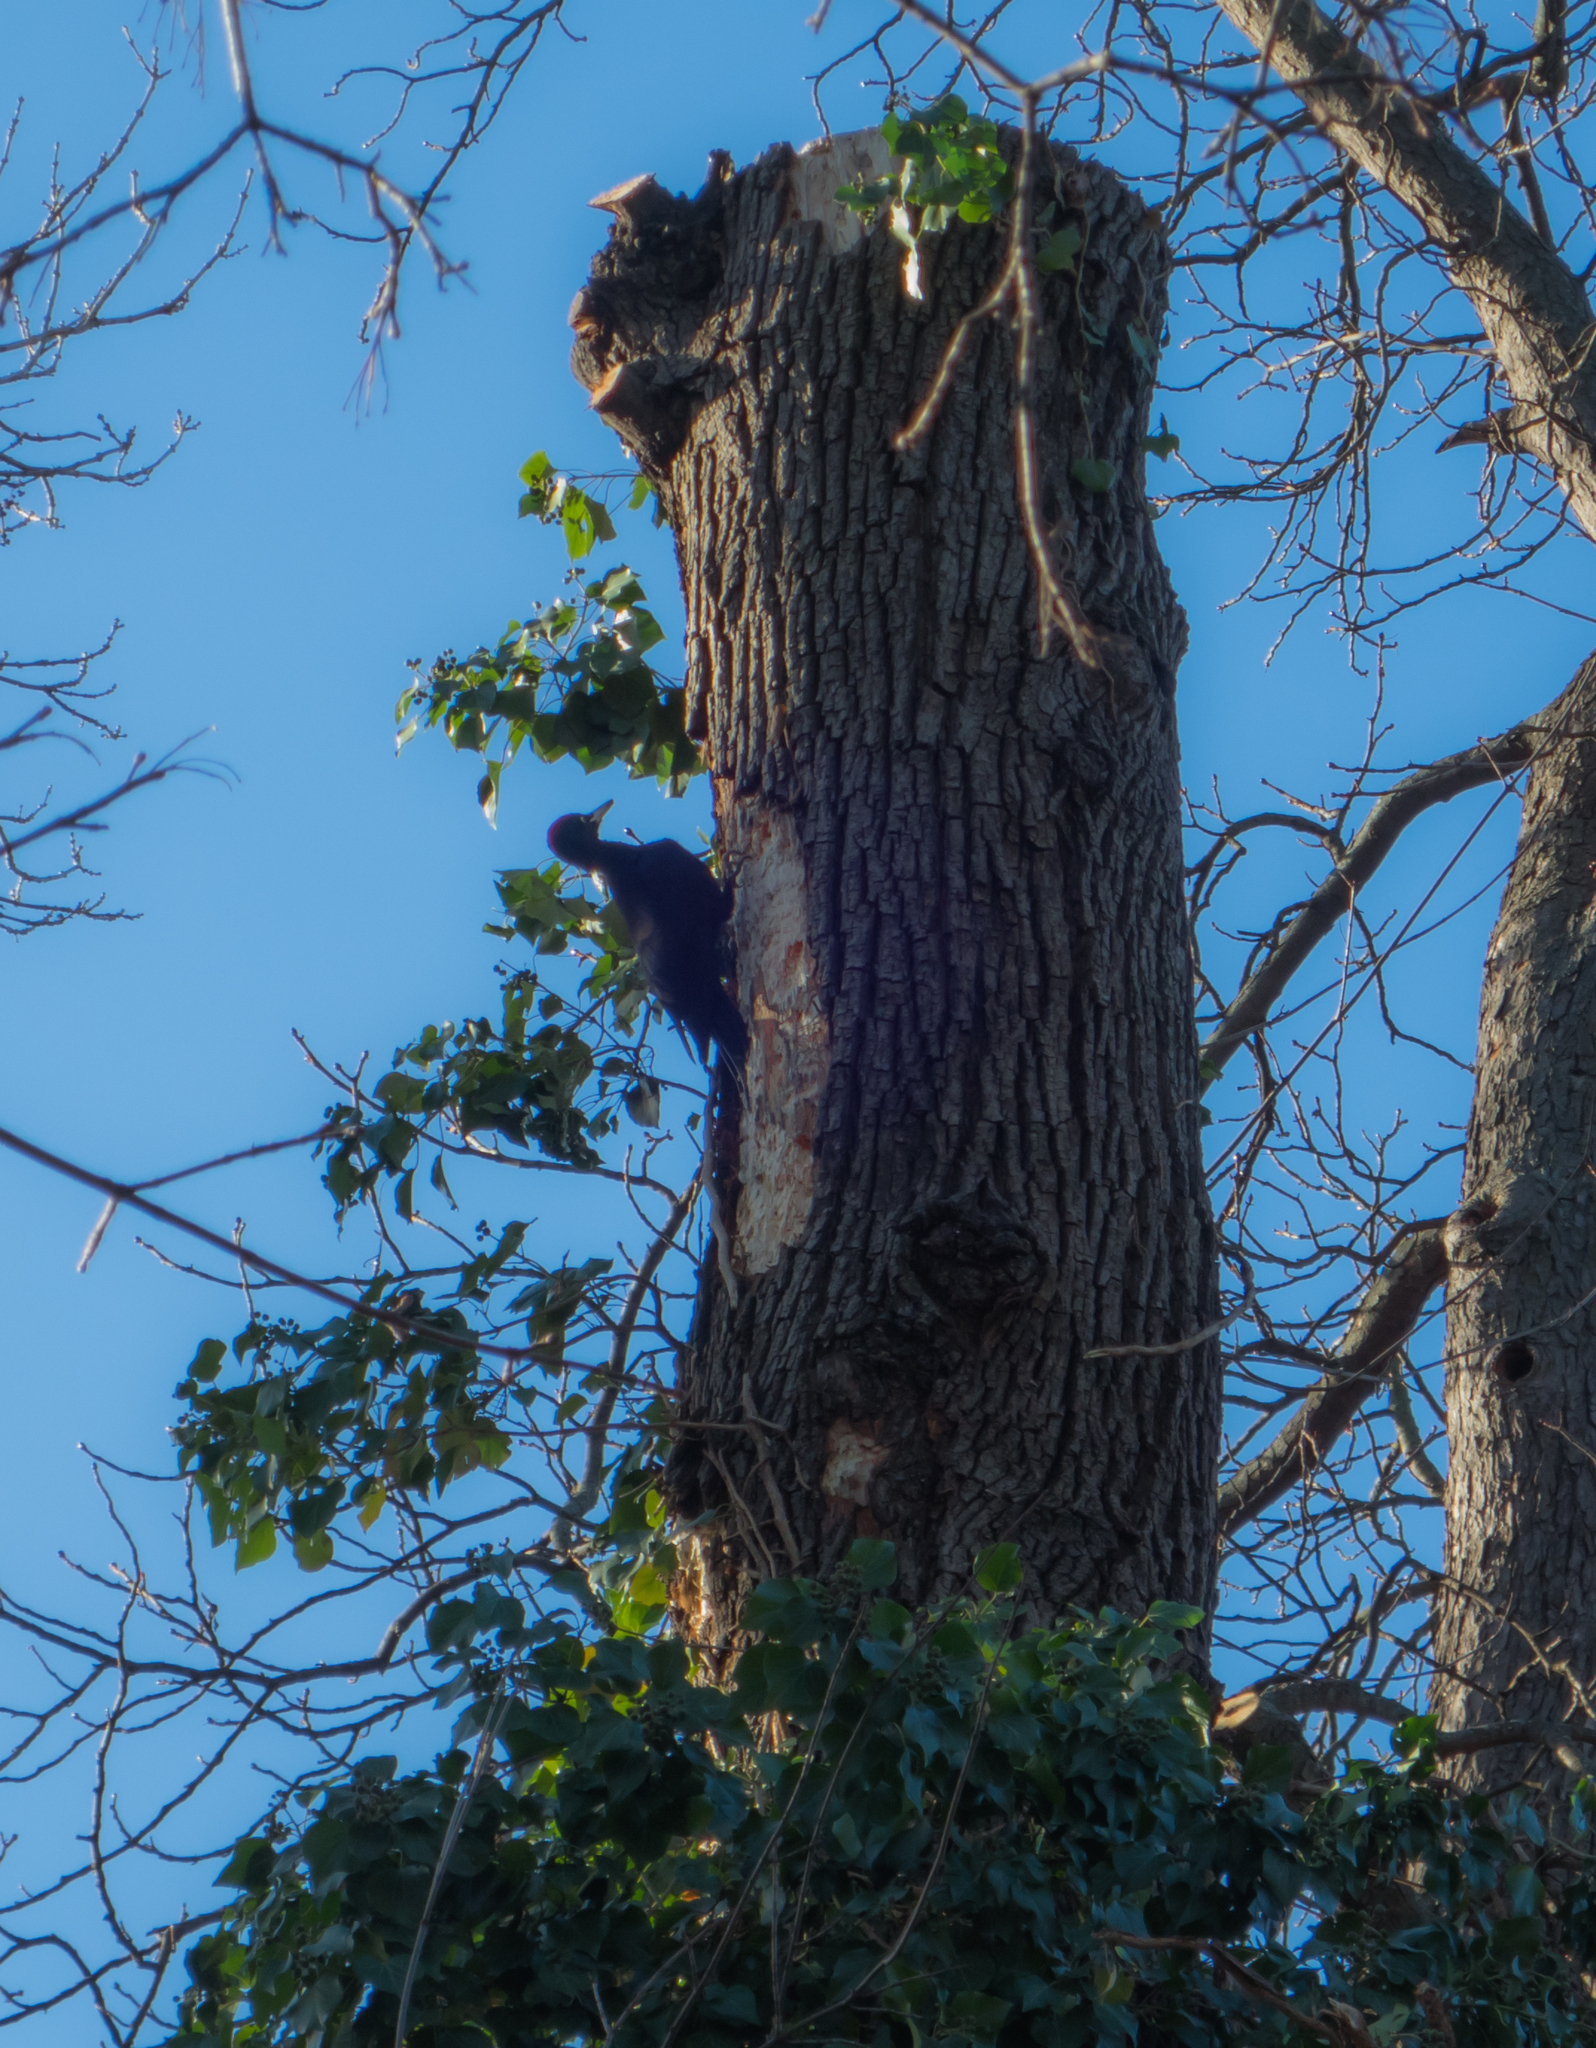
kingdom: Animalia
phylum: Chordata
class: Aves
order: Piciformes
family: Picidae
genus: Dryocopus
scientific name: Dryocopus martius
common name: Black woodpecker
